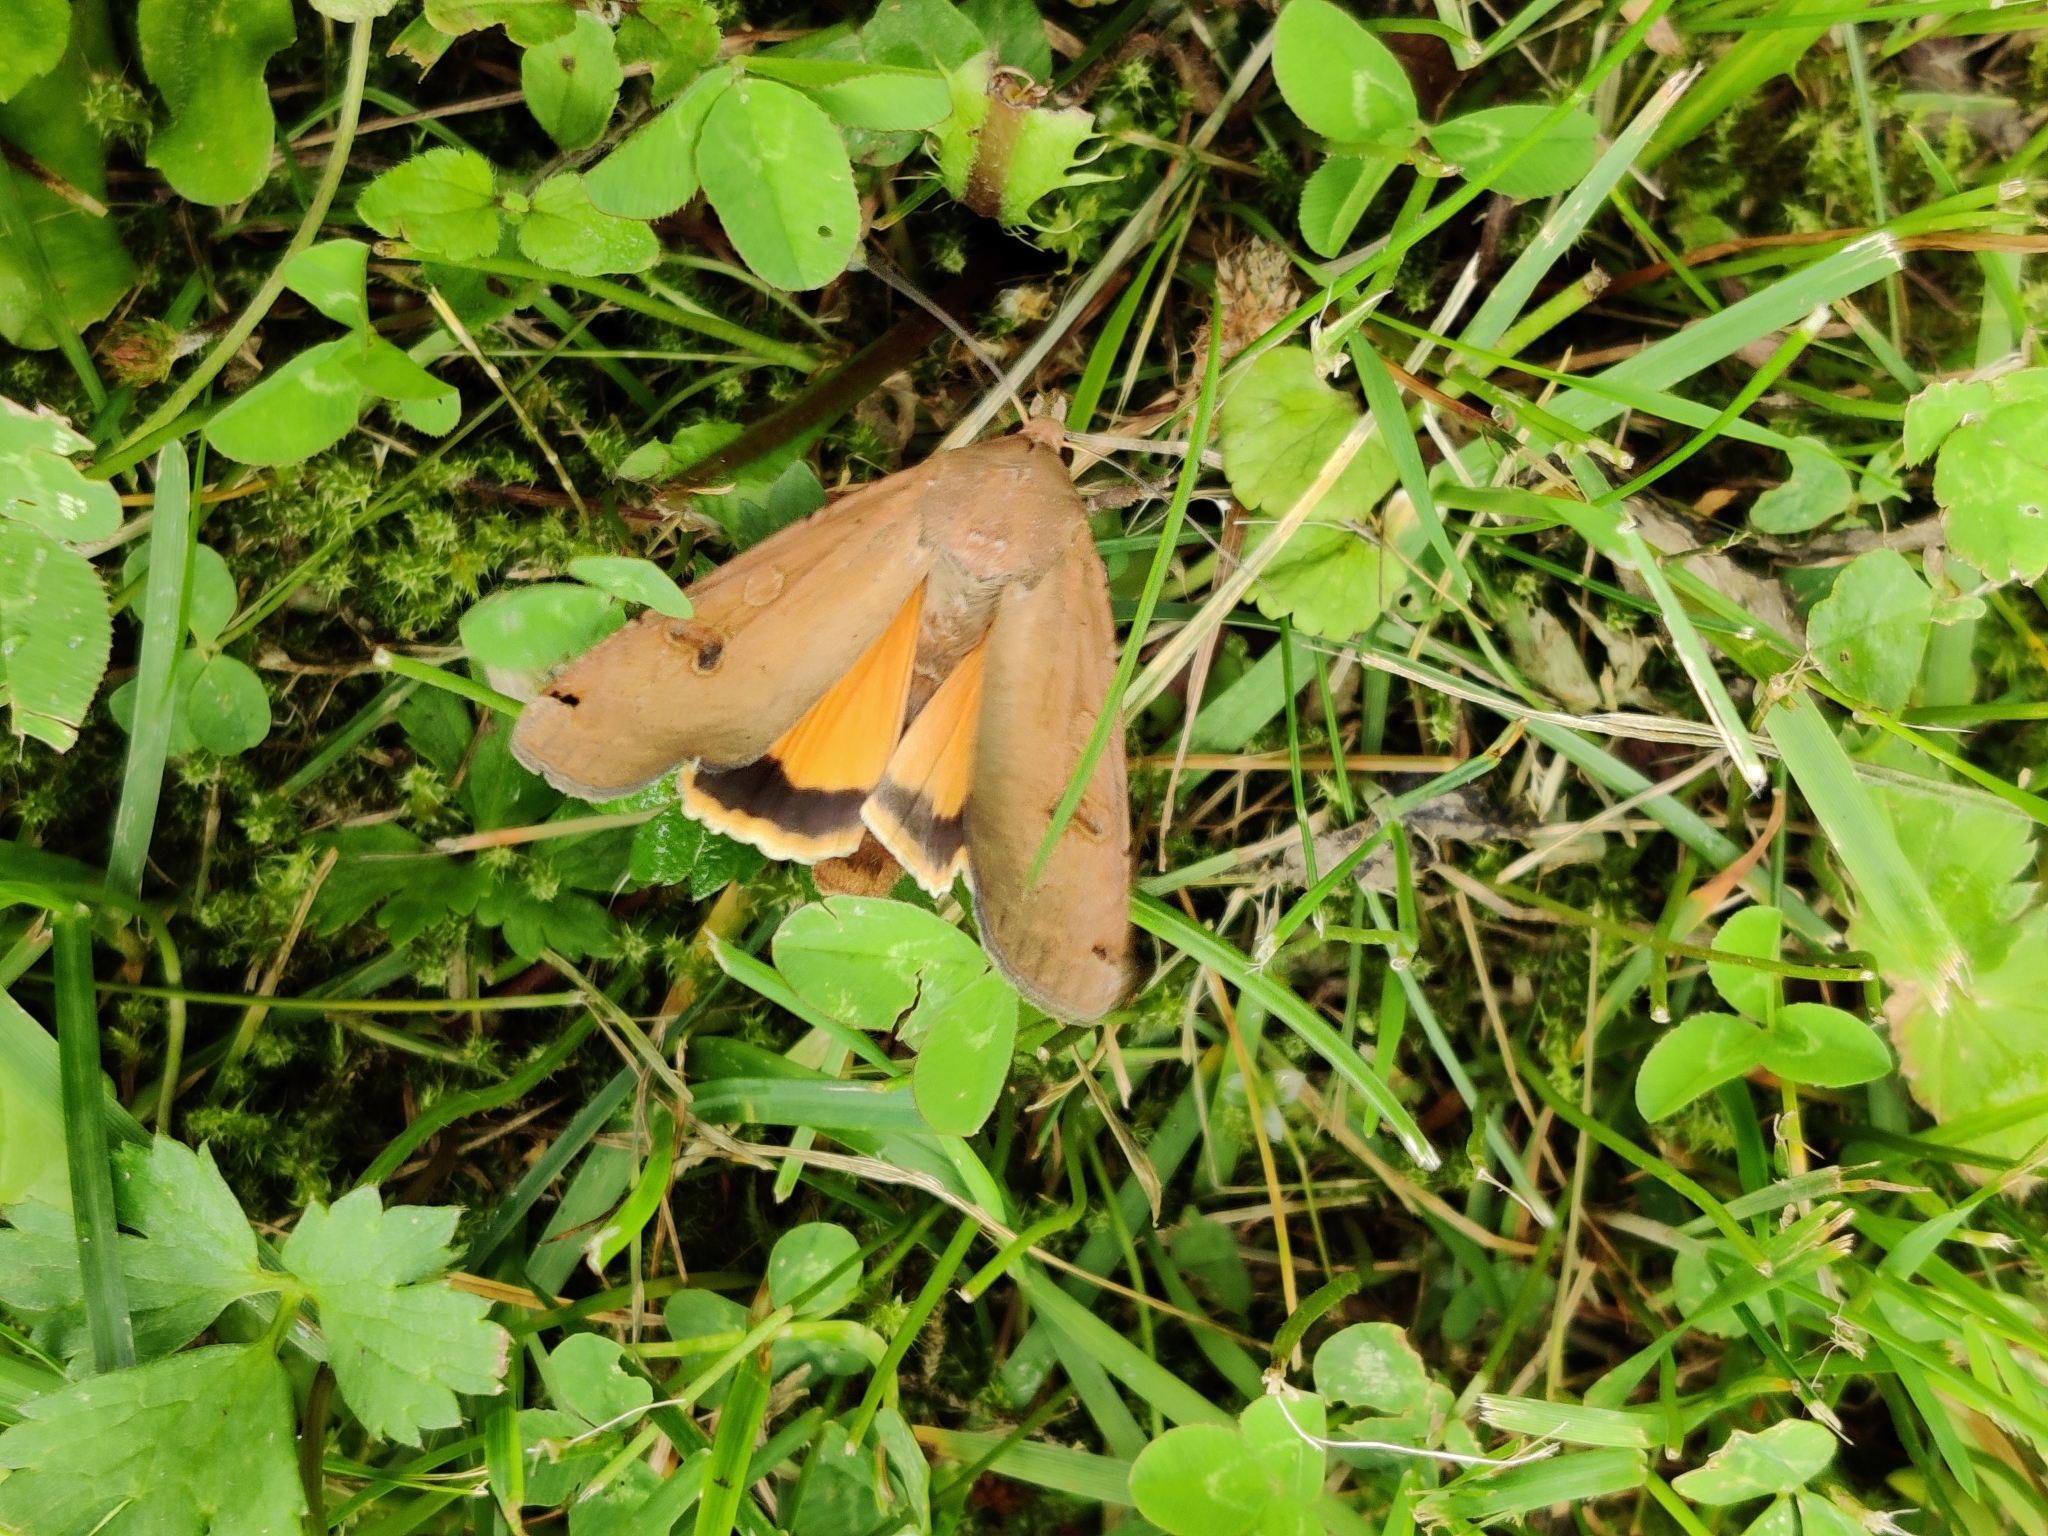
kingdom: Animalia
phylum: Arthropoda
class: Insecta
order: Lepidoptera
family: Noctuidae
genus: Noctua
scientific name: Noctua pronuba
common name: Large yellow underwing
